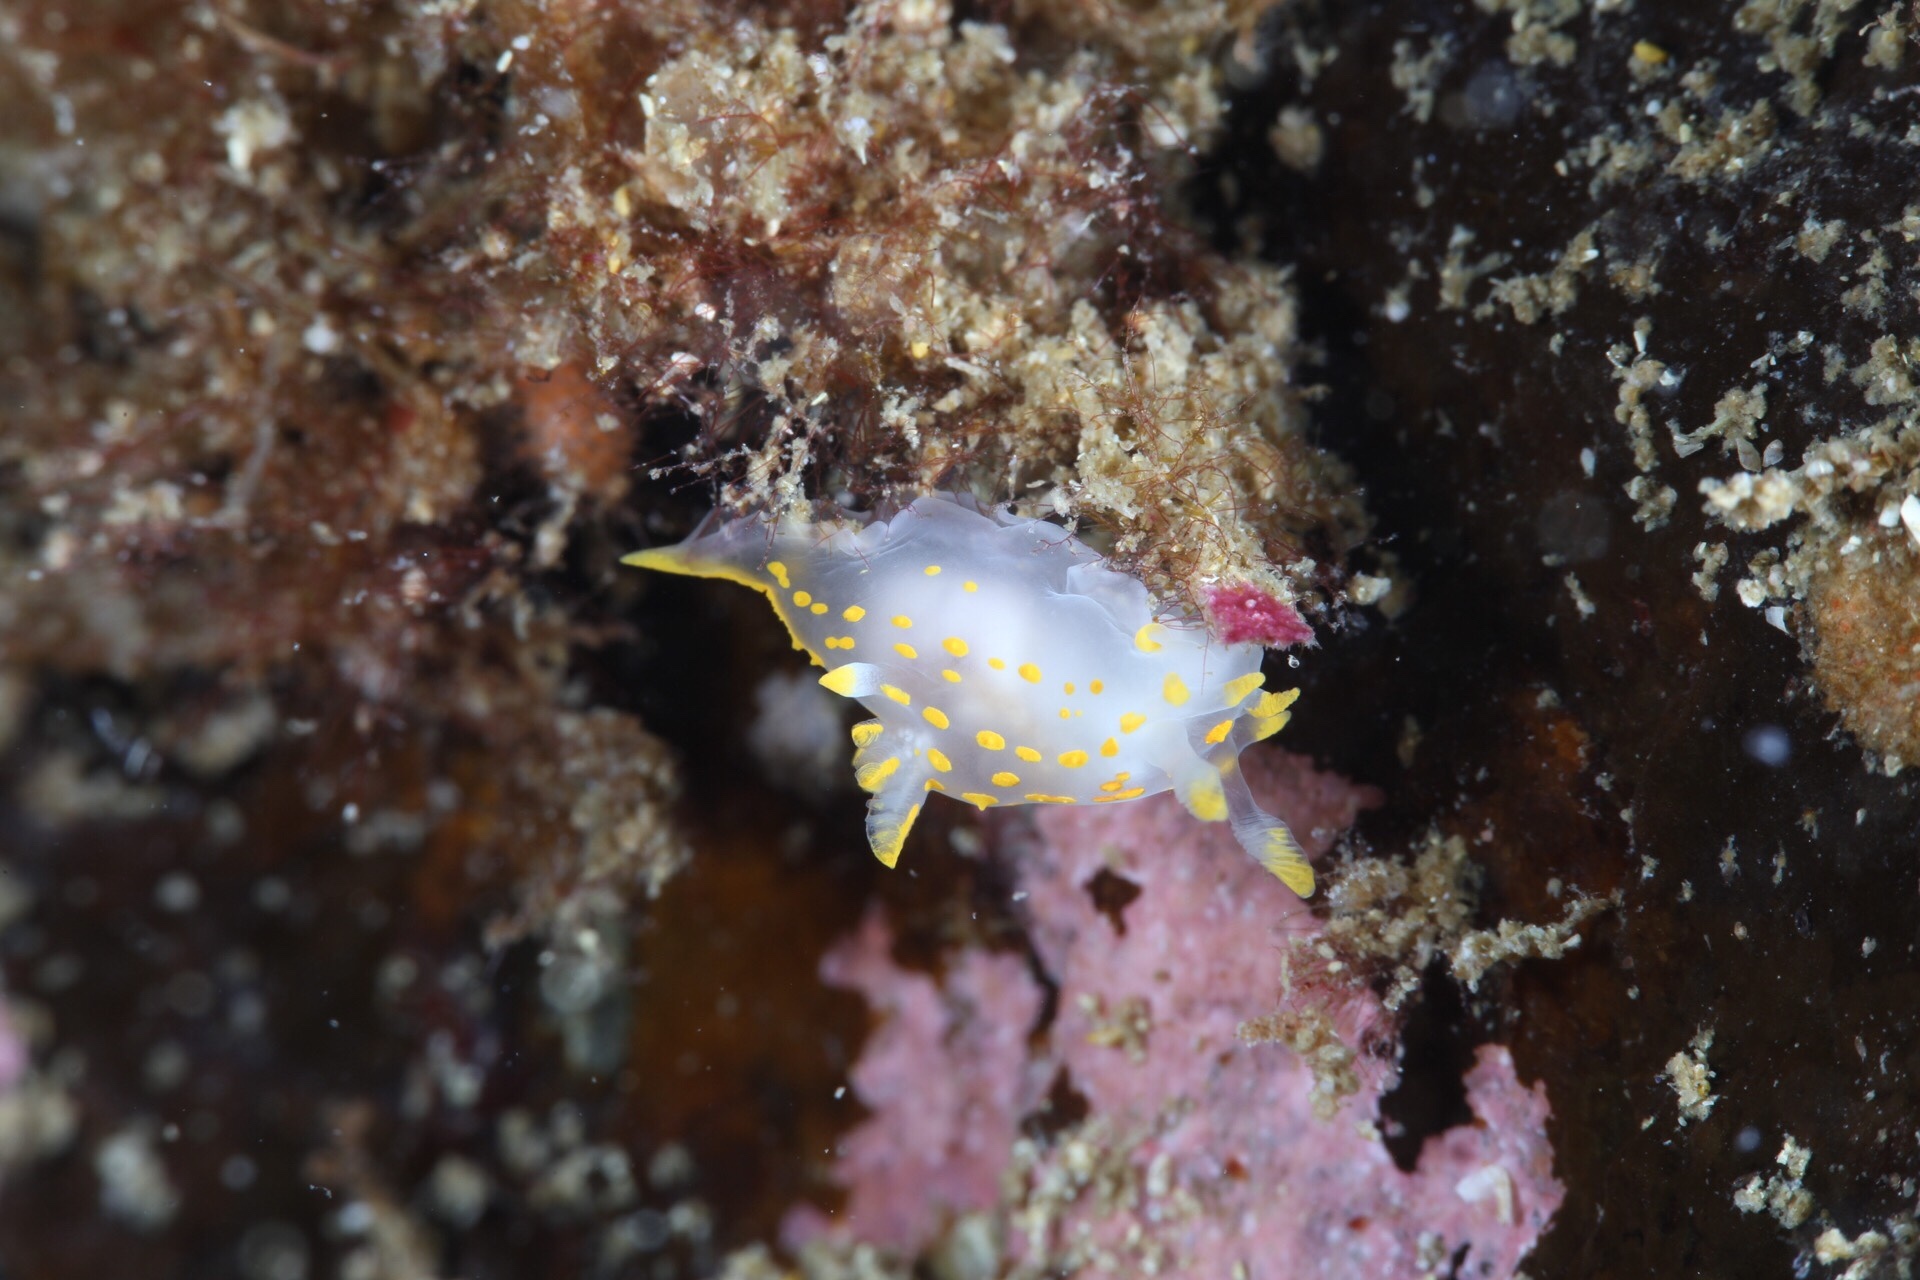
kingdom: Animalia
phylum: Mollusca
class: Gastropoda
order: Nudibranchia
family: Polyceridae
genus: Polycera
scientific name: Polycera quadrilineata
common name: Four-striped polycera
